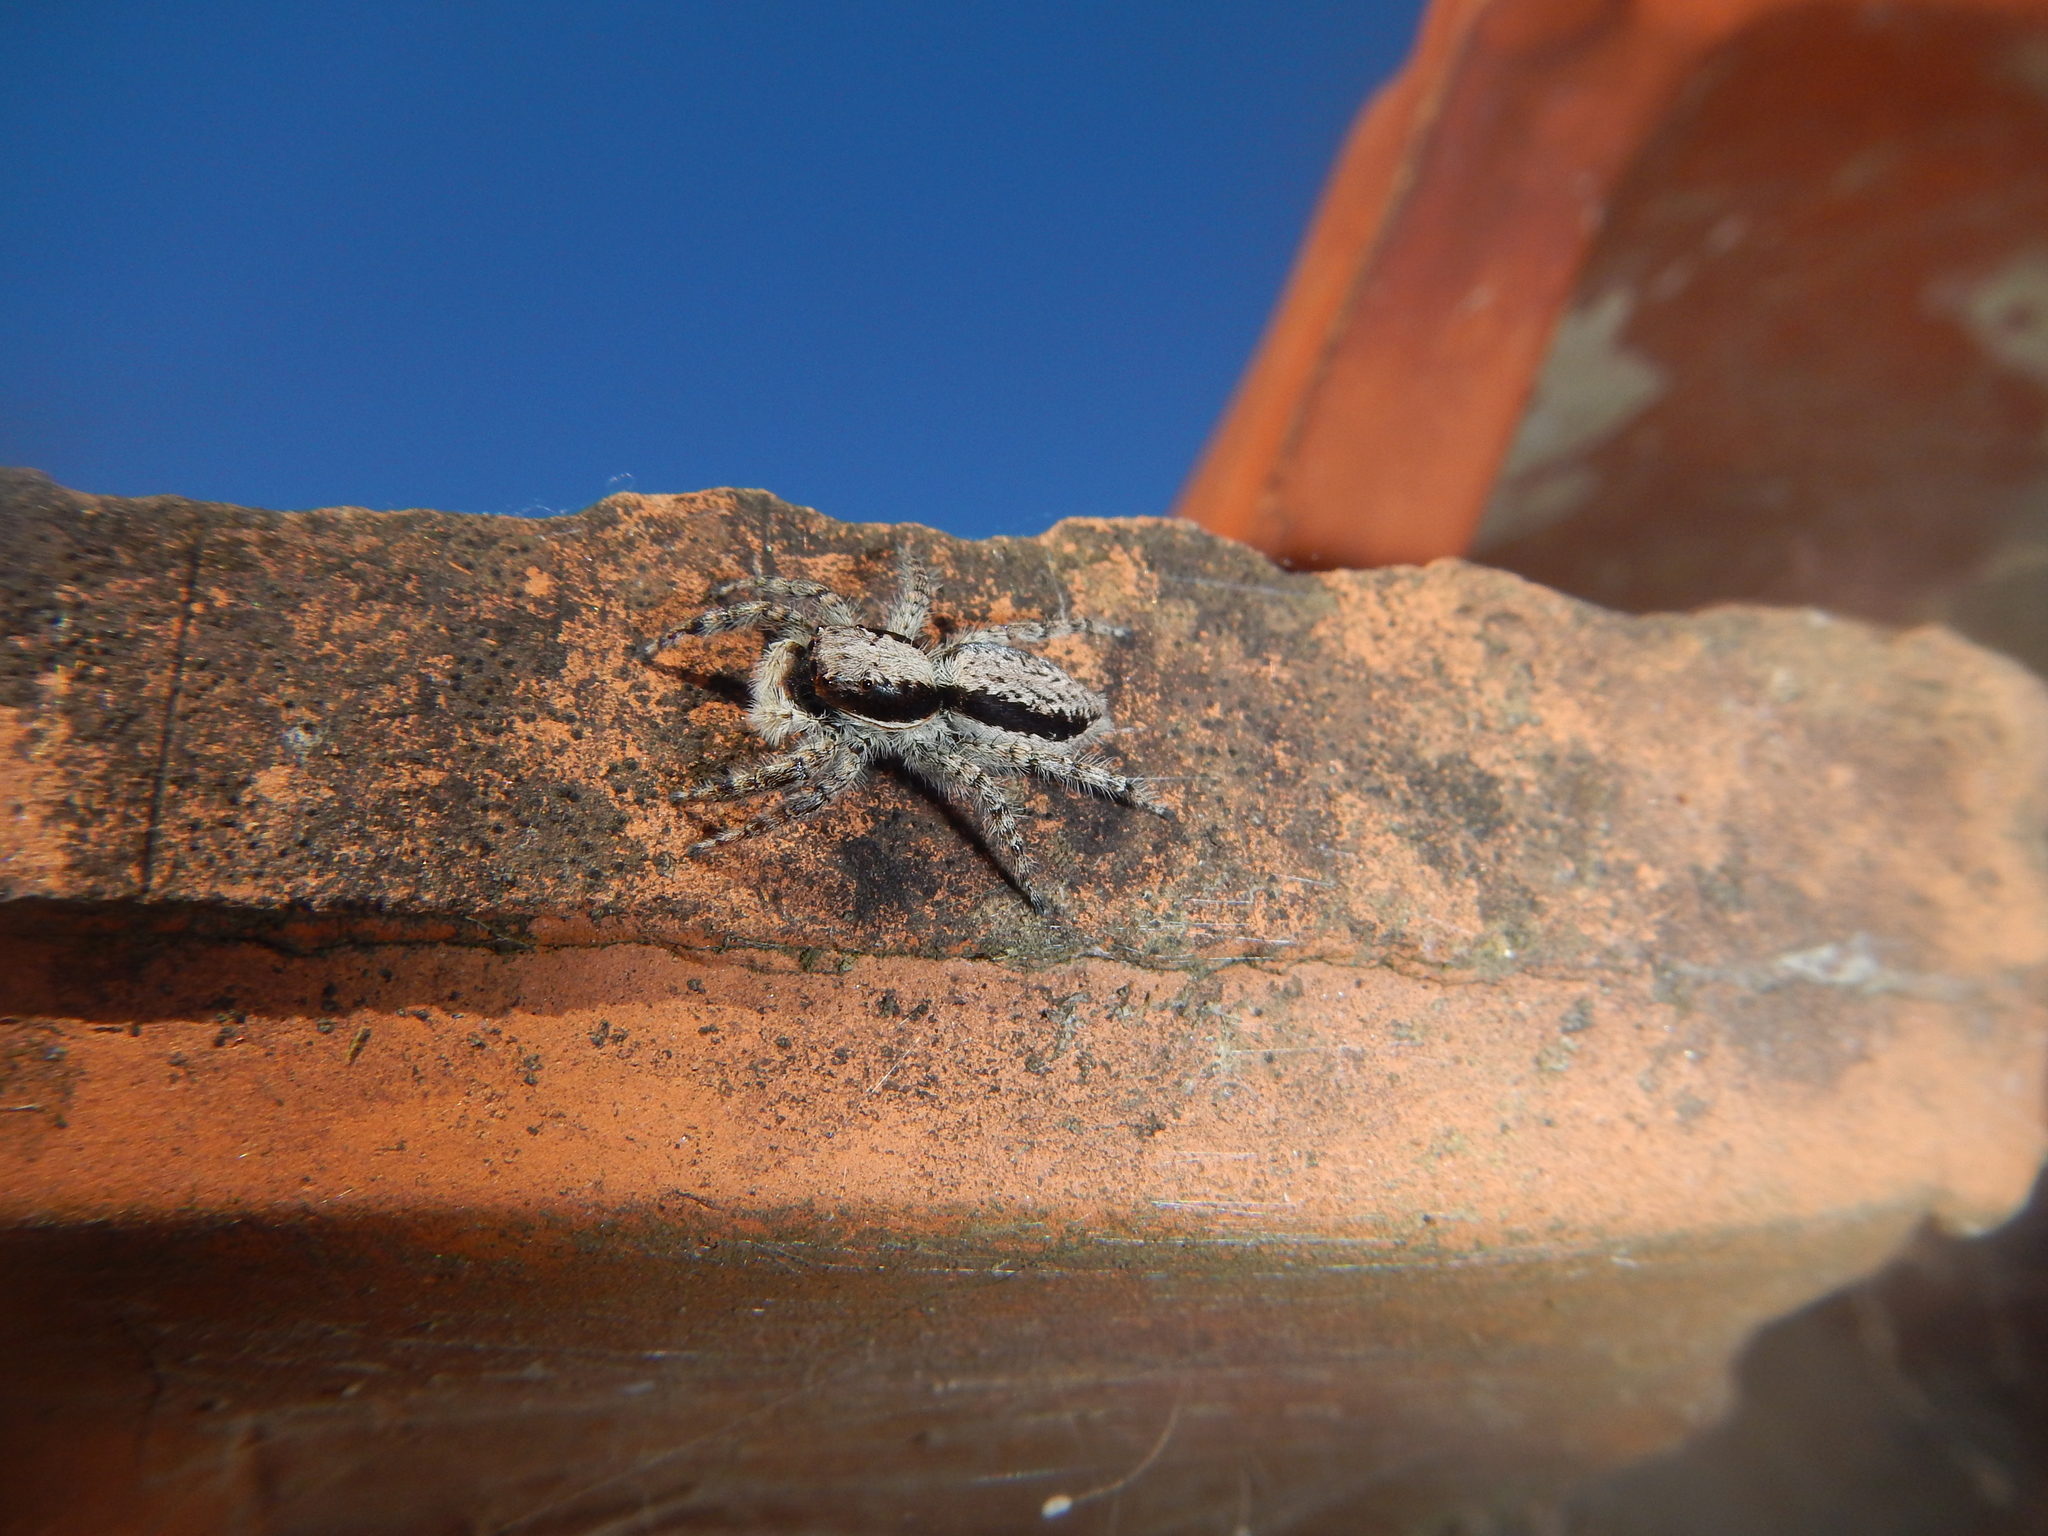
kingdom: Animalia
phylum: Arthropoda
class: Arachnida
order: Araneae
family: Salticidae
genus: Menemerus
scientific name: Menemerus taeniatus
